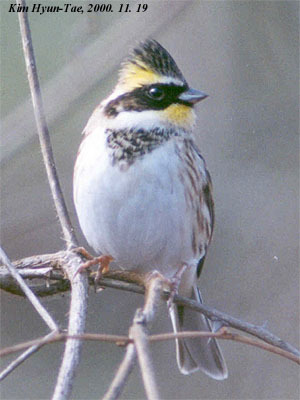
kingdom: Animalia
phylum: Chordata
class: Aves
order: Passeriformes
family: Emberizidae
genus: Emberiza
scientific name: Emberiza elegans
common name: Yellow-throated bunting
